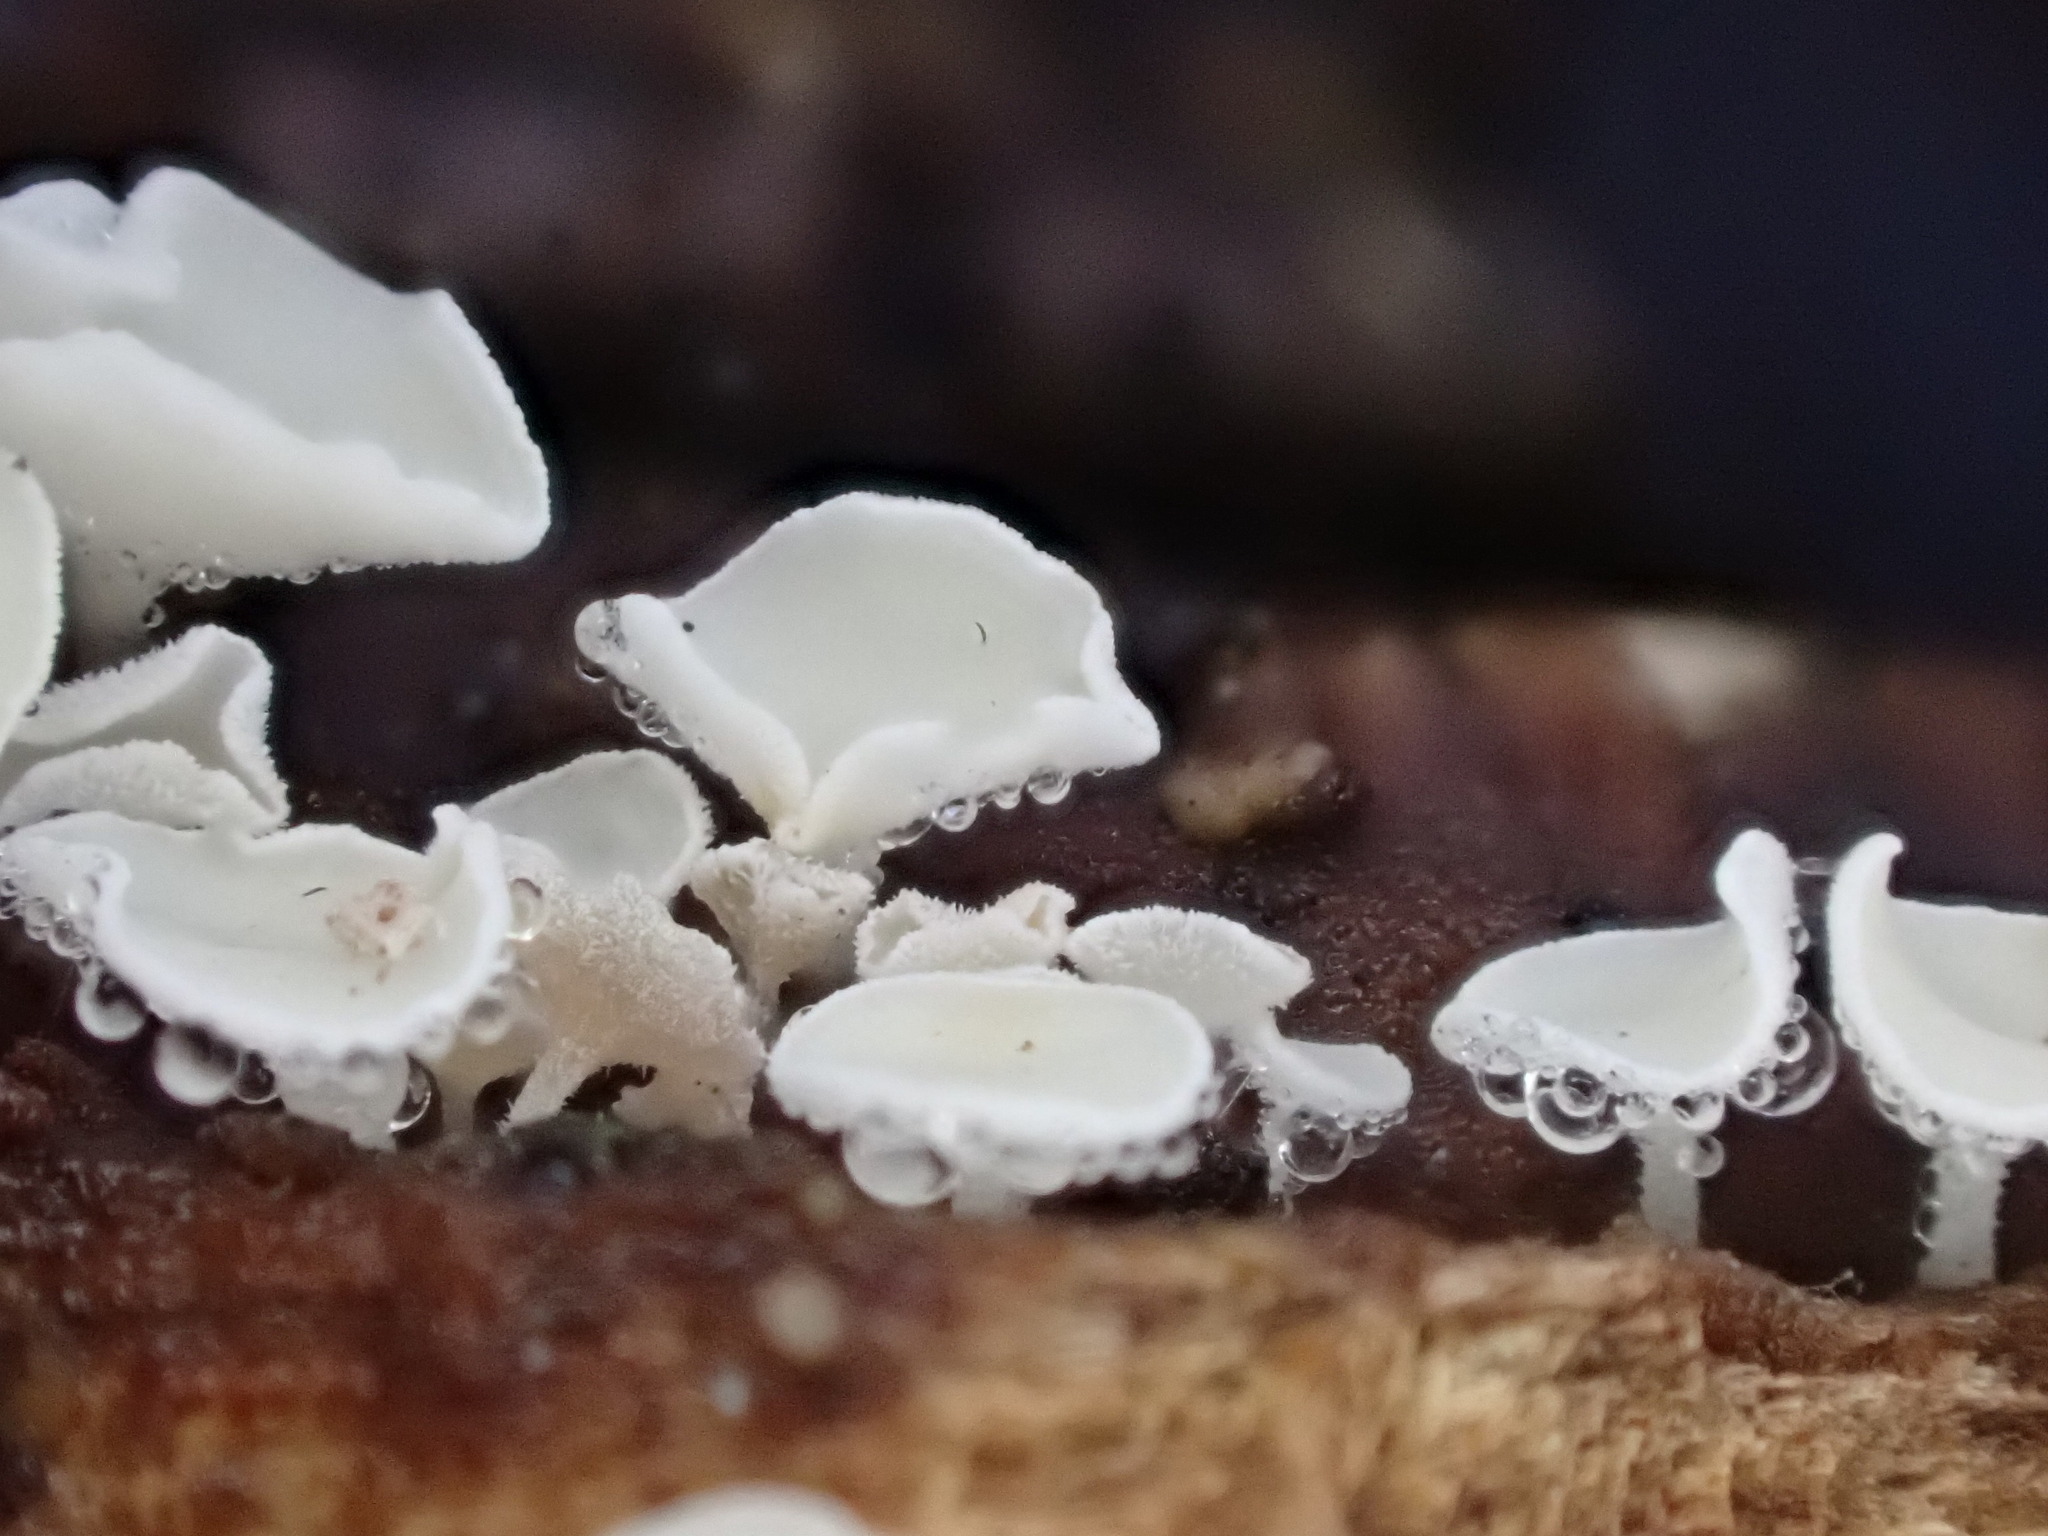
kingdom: Fungi
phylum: Ascomycota
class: Leotiomycetes
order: Helotiales
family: Lachnaceae
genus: Lachnum
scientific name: Lachnum impudicum
